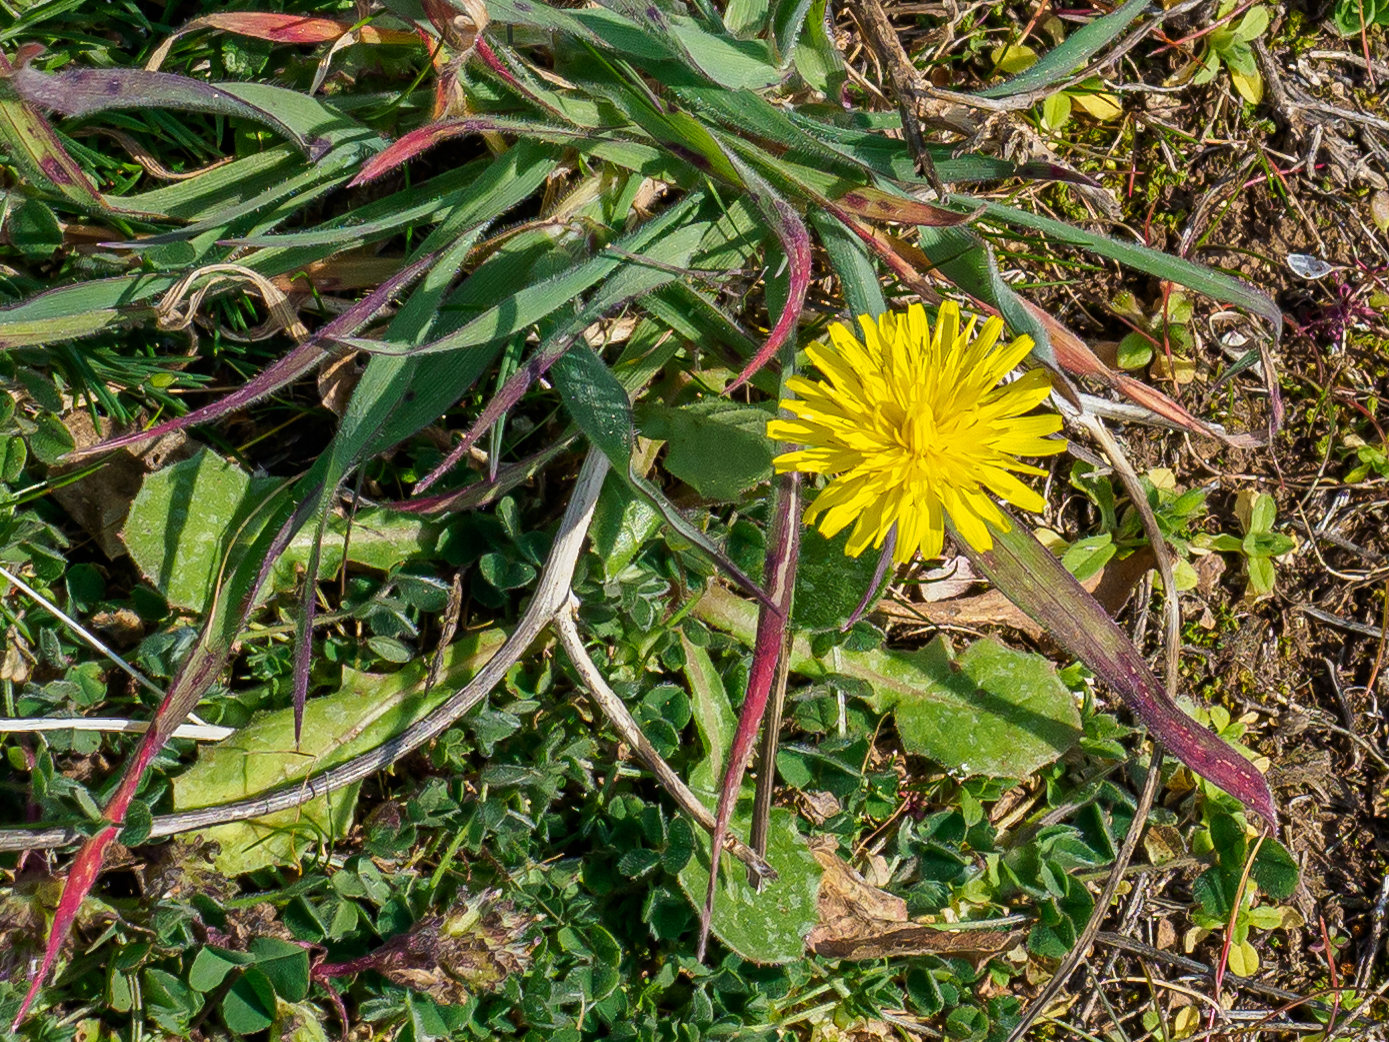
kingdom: Plantae
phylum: Tracheophyta
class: Magnoliopsida
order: Asterales
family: Asteraceae
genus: Crepis
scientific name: Crepis sancta
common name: Hawk's-beard
